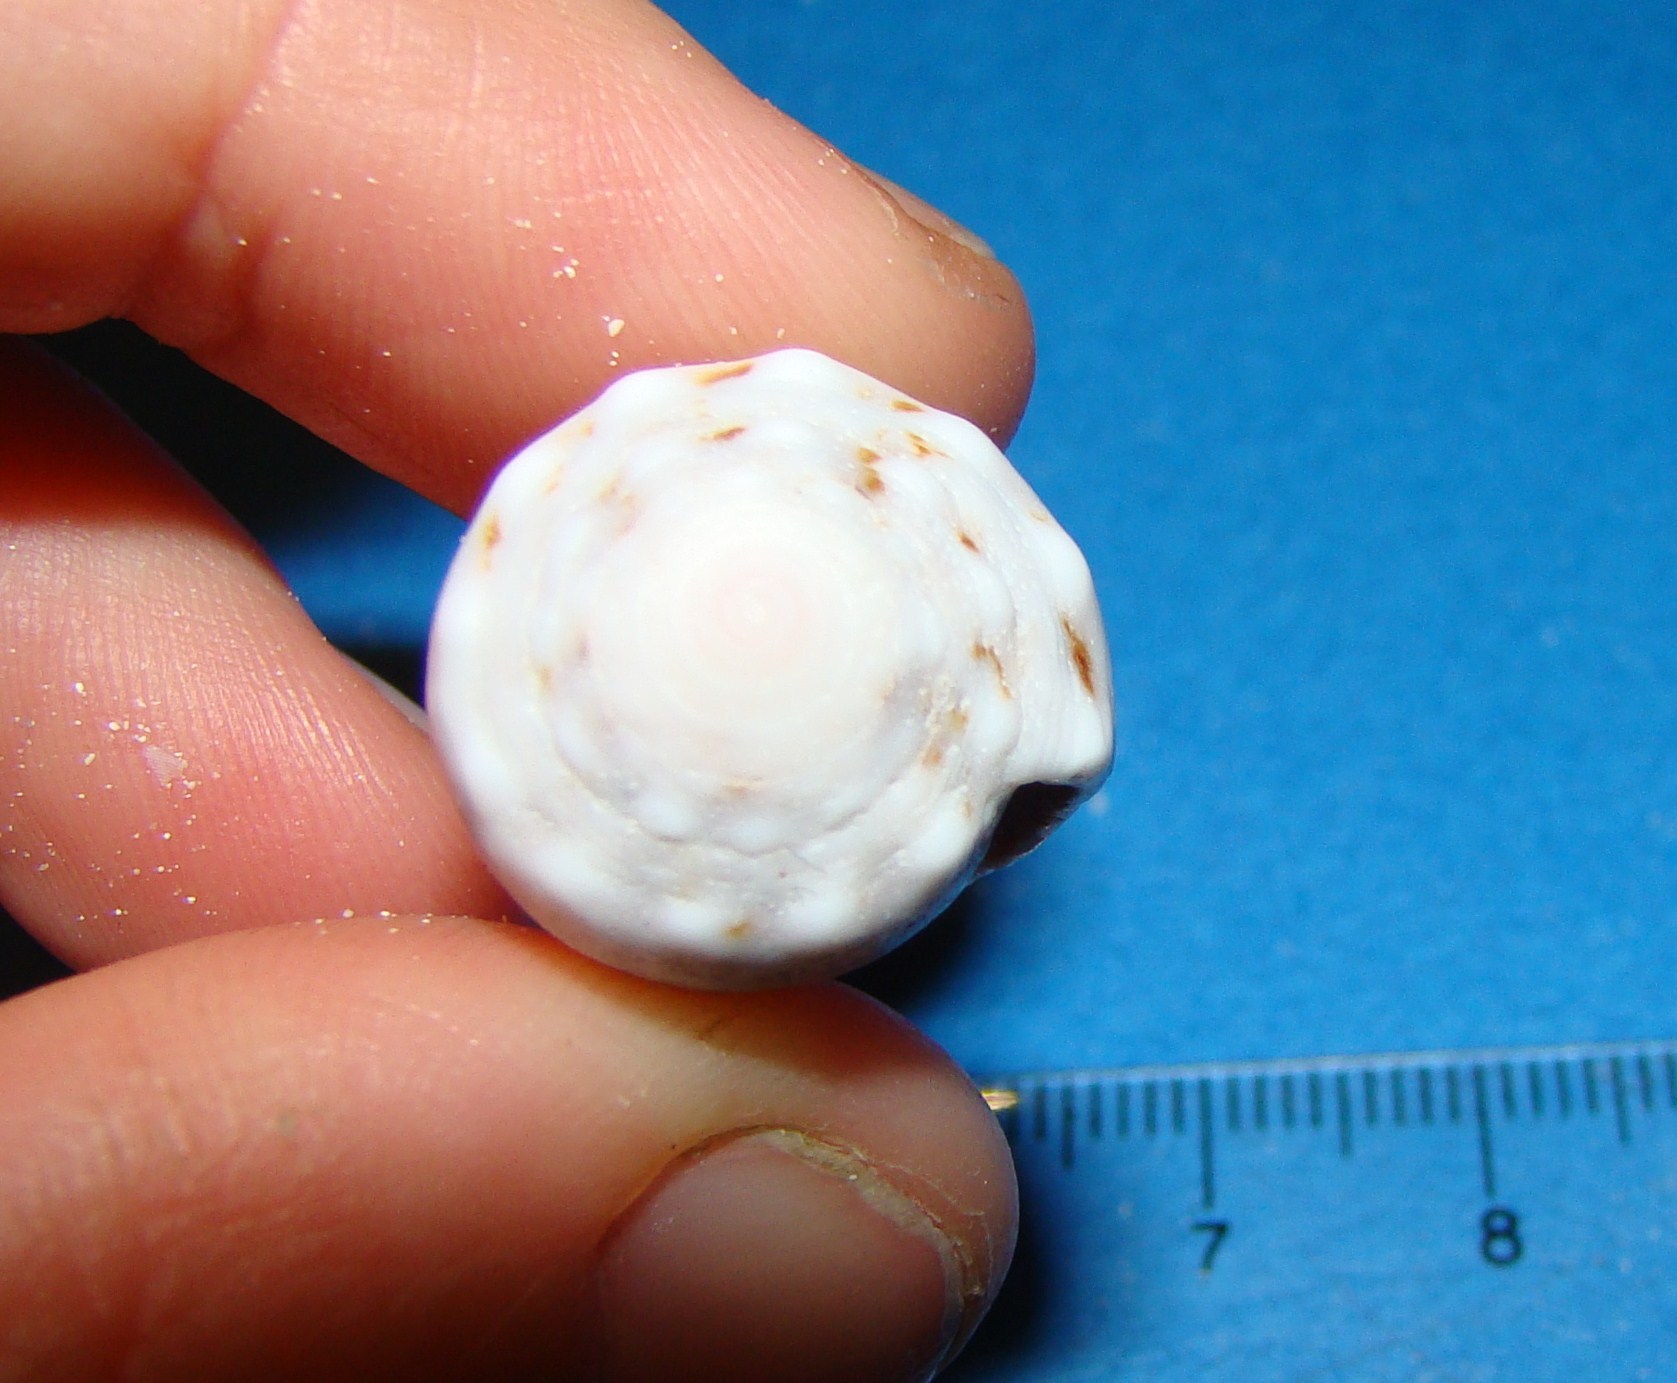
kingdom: Animalia
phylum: Mollusca
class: Gastropoda
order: Neogastropoda
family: Conidae
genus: Conus
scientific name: Conus coronatus
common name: Coronated cone
